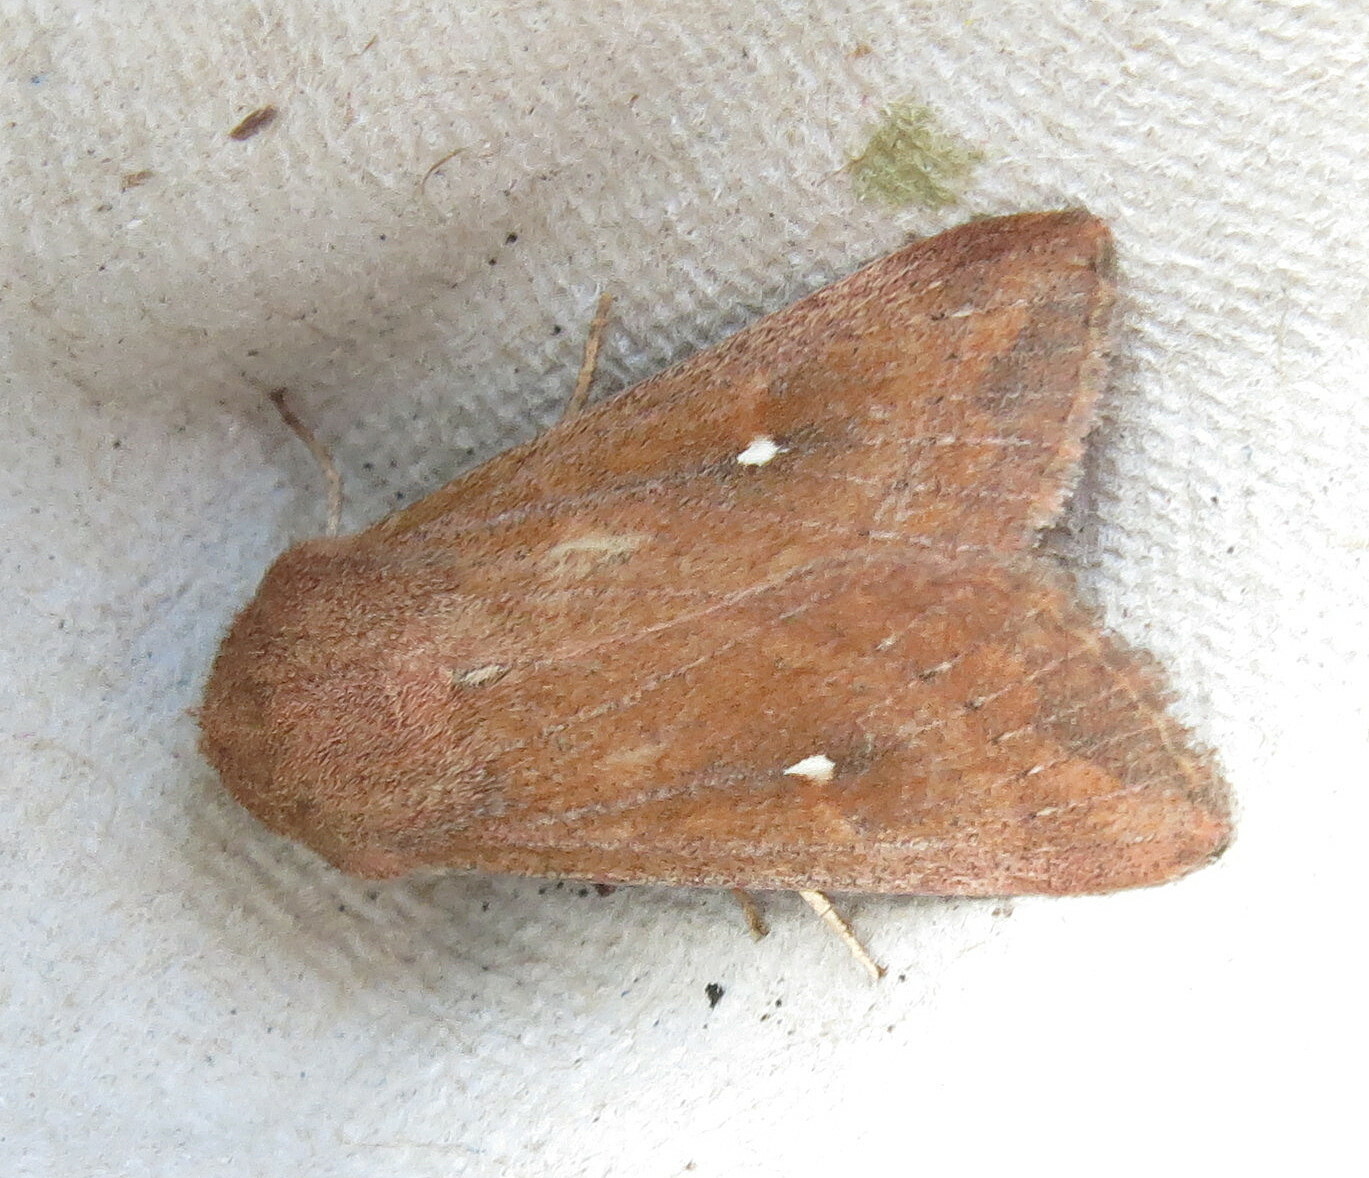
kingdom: Animalia
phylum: Arthropoda
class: Insecta
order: Lepidoptera
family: Noctuidae
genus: Mythimna
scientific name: Mythimna albipuncta
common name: White-point
